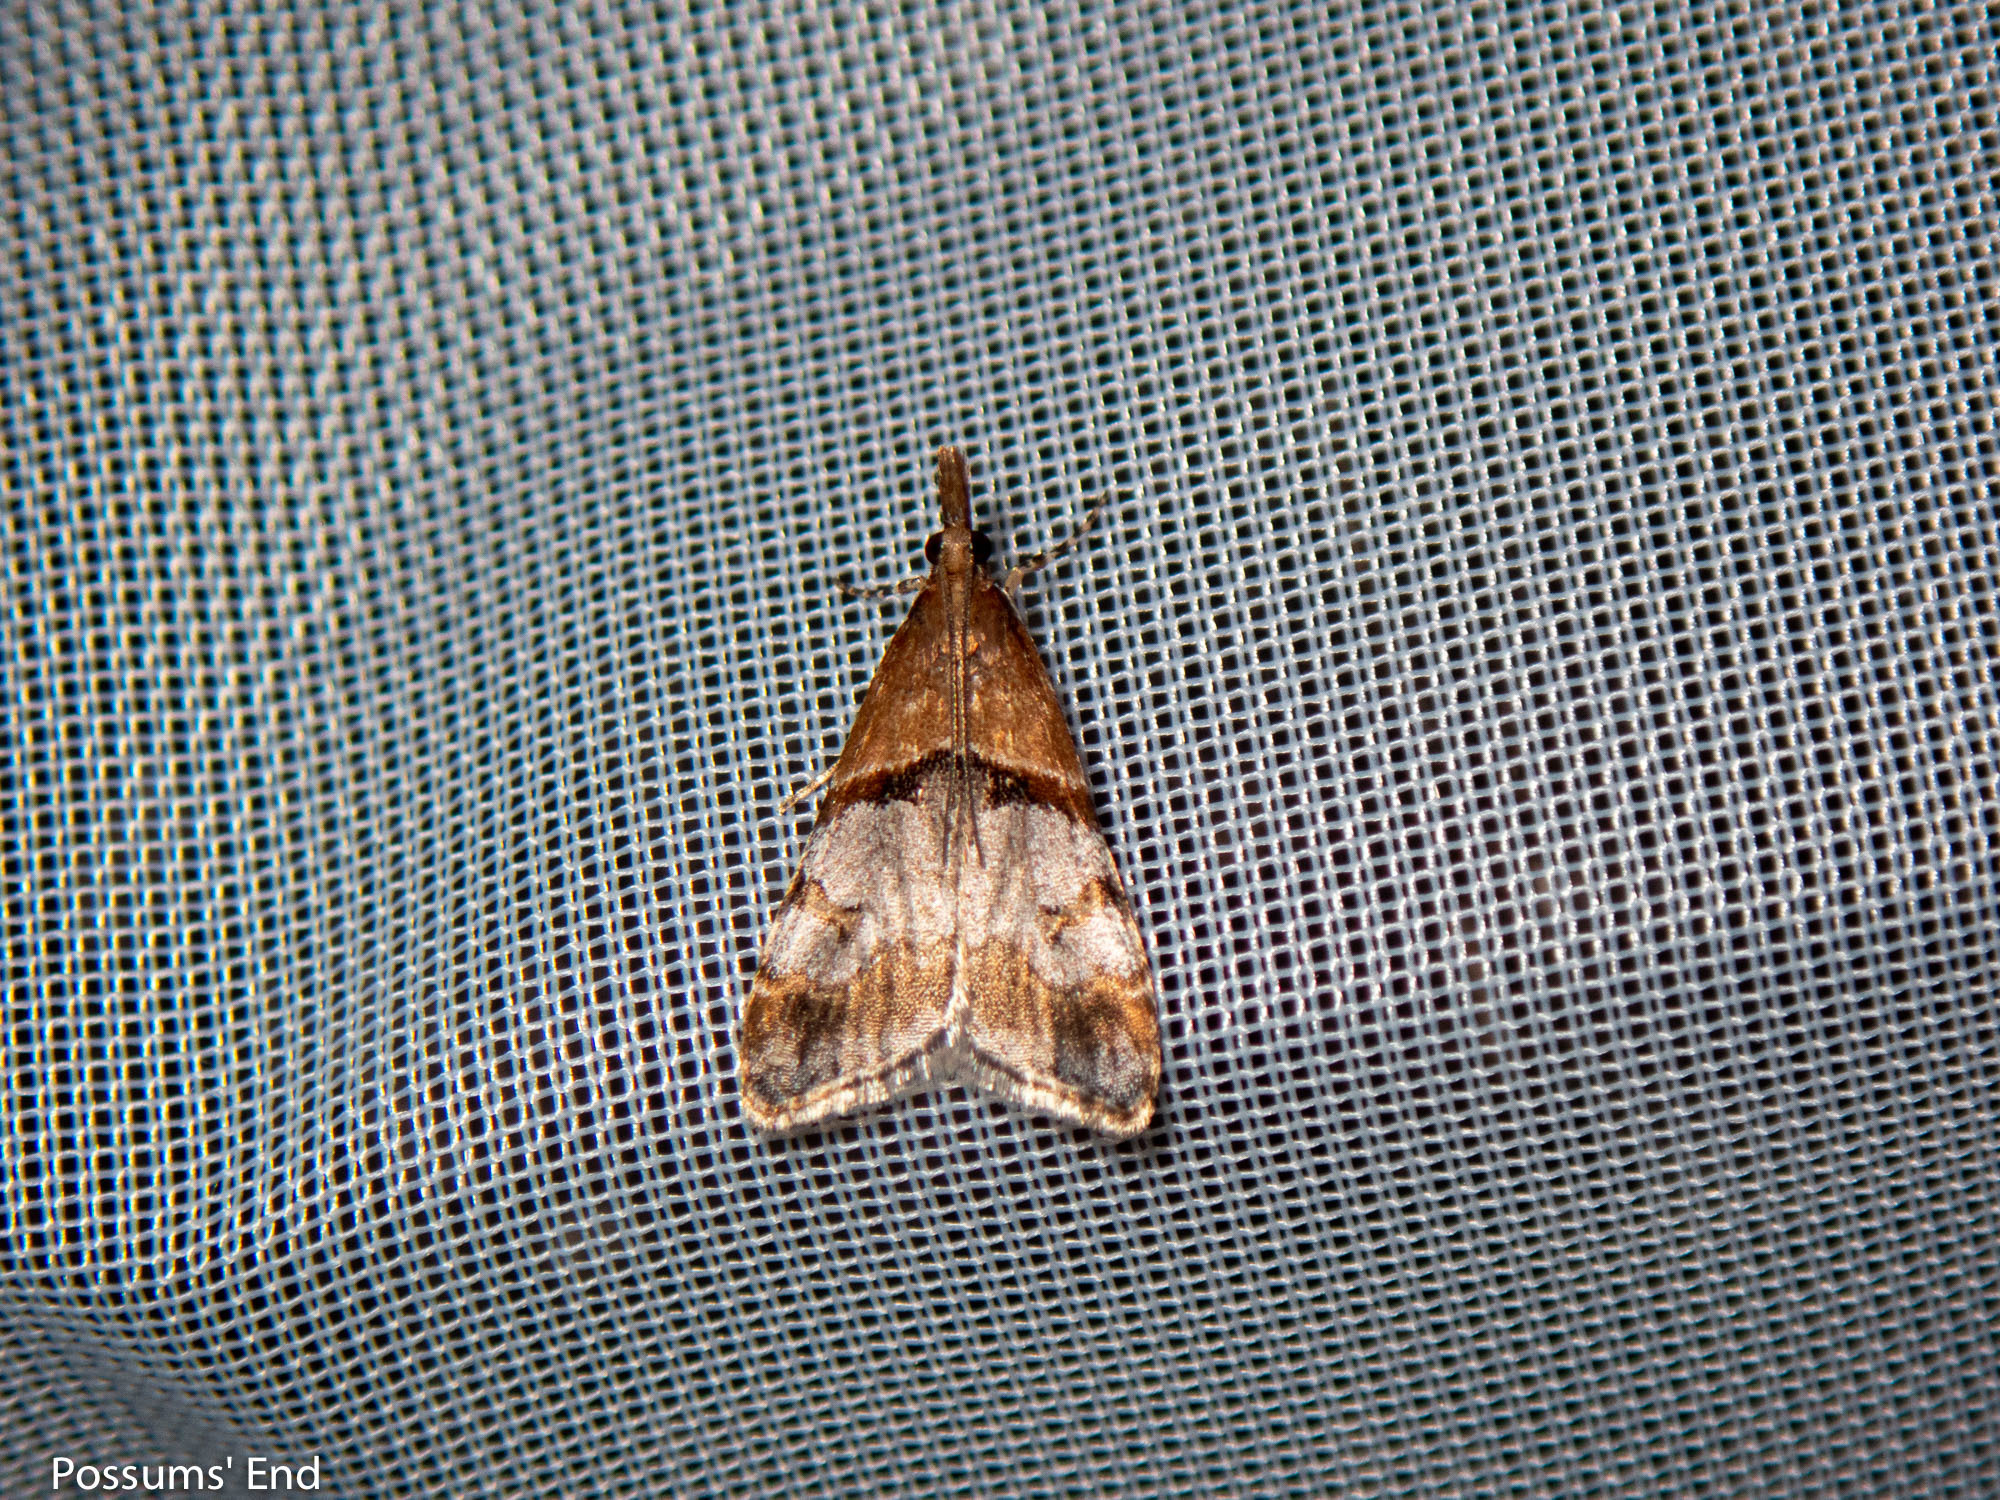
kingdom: Animalia
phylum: Arthropoda
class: Insecta
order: Lepidoptera
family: Crambidae
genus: Antiscopa
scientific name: Antiscopa epicomia
